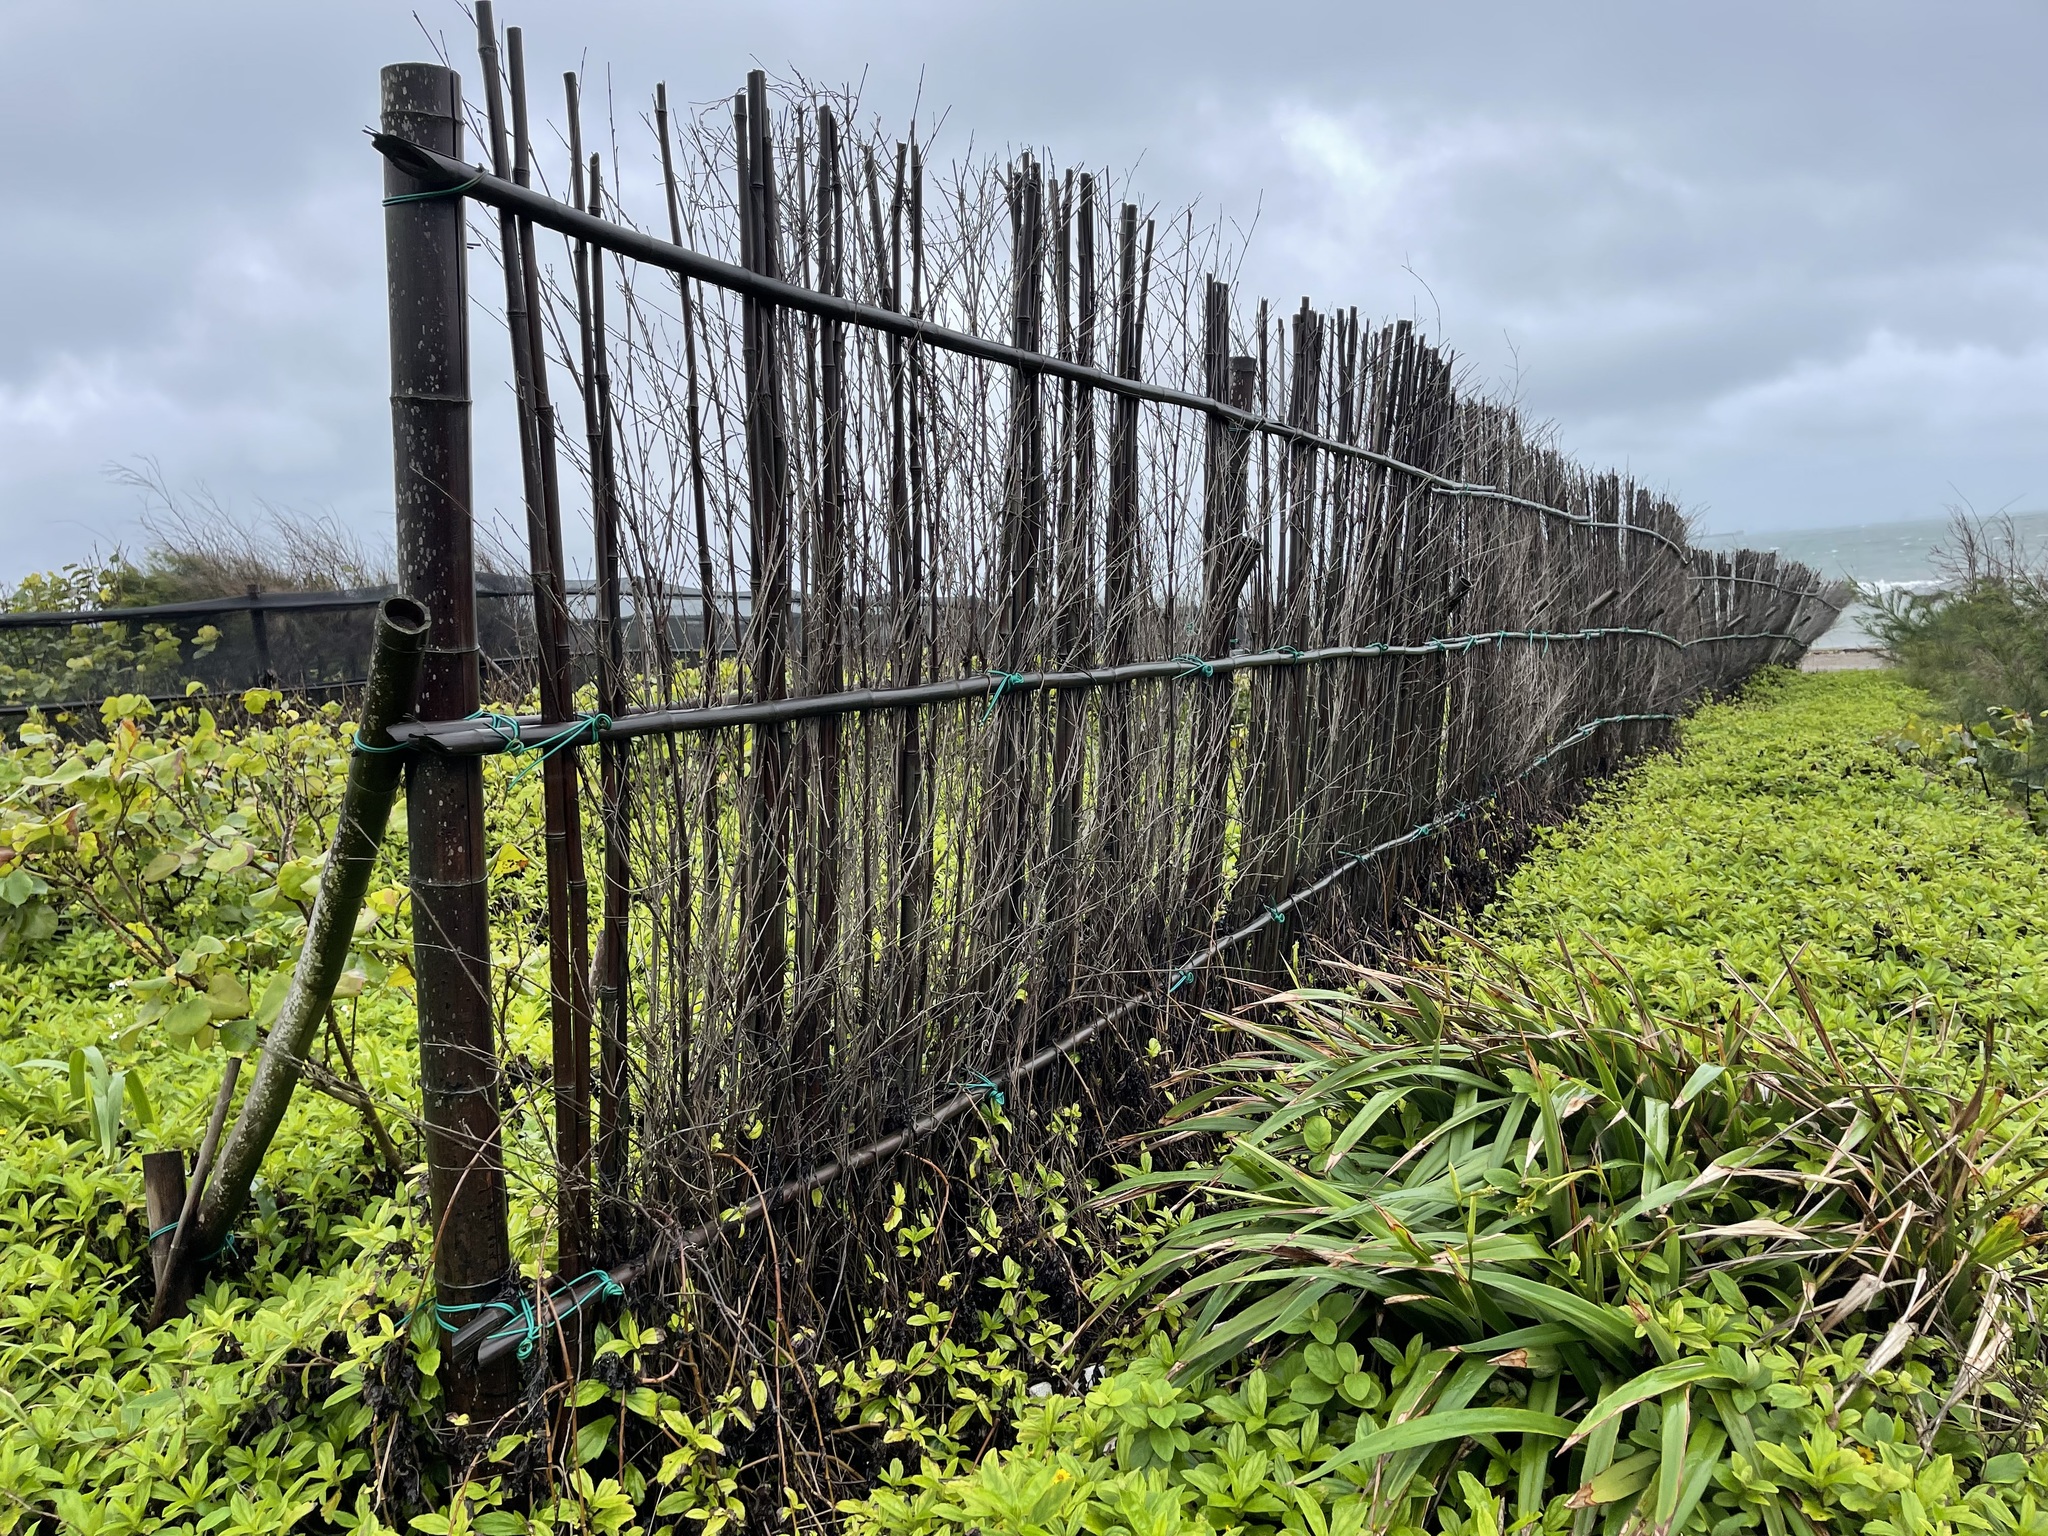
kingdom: Plantae
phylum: Tracheophyta
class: Liliopsida
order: Asparagales
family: Asphodelaceae
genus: Dianella
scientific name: Dianella ensifolia
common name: New zealand lilyplant
